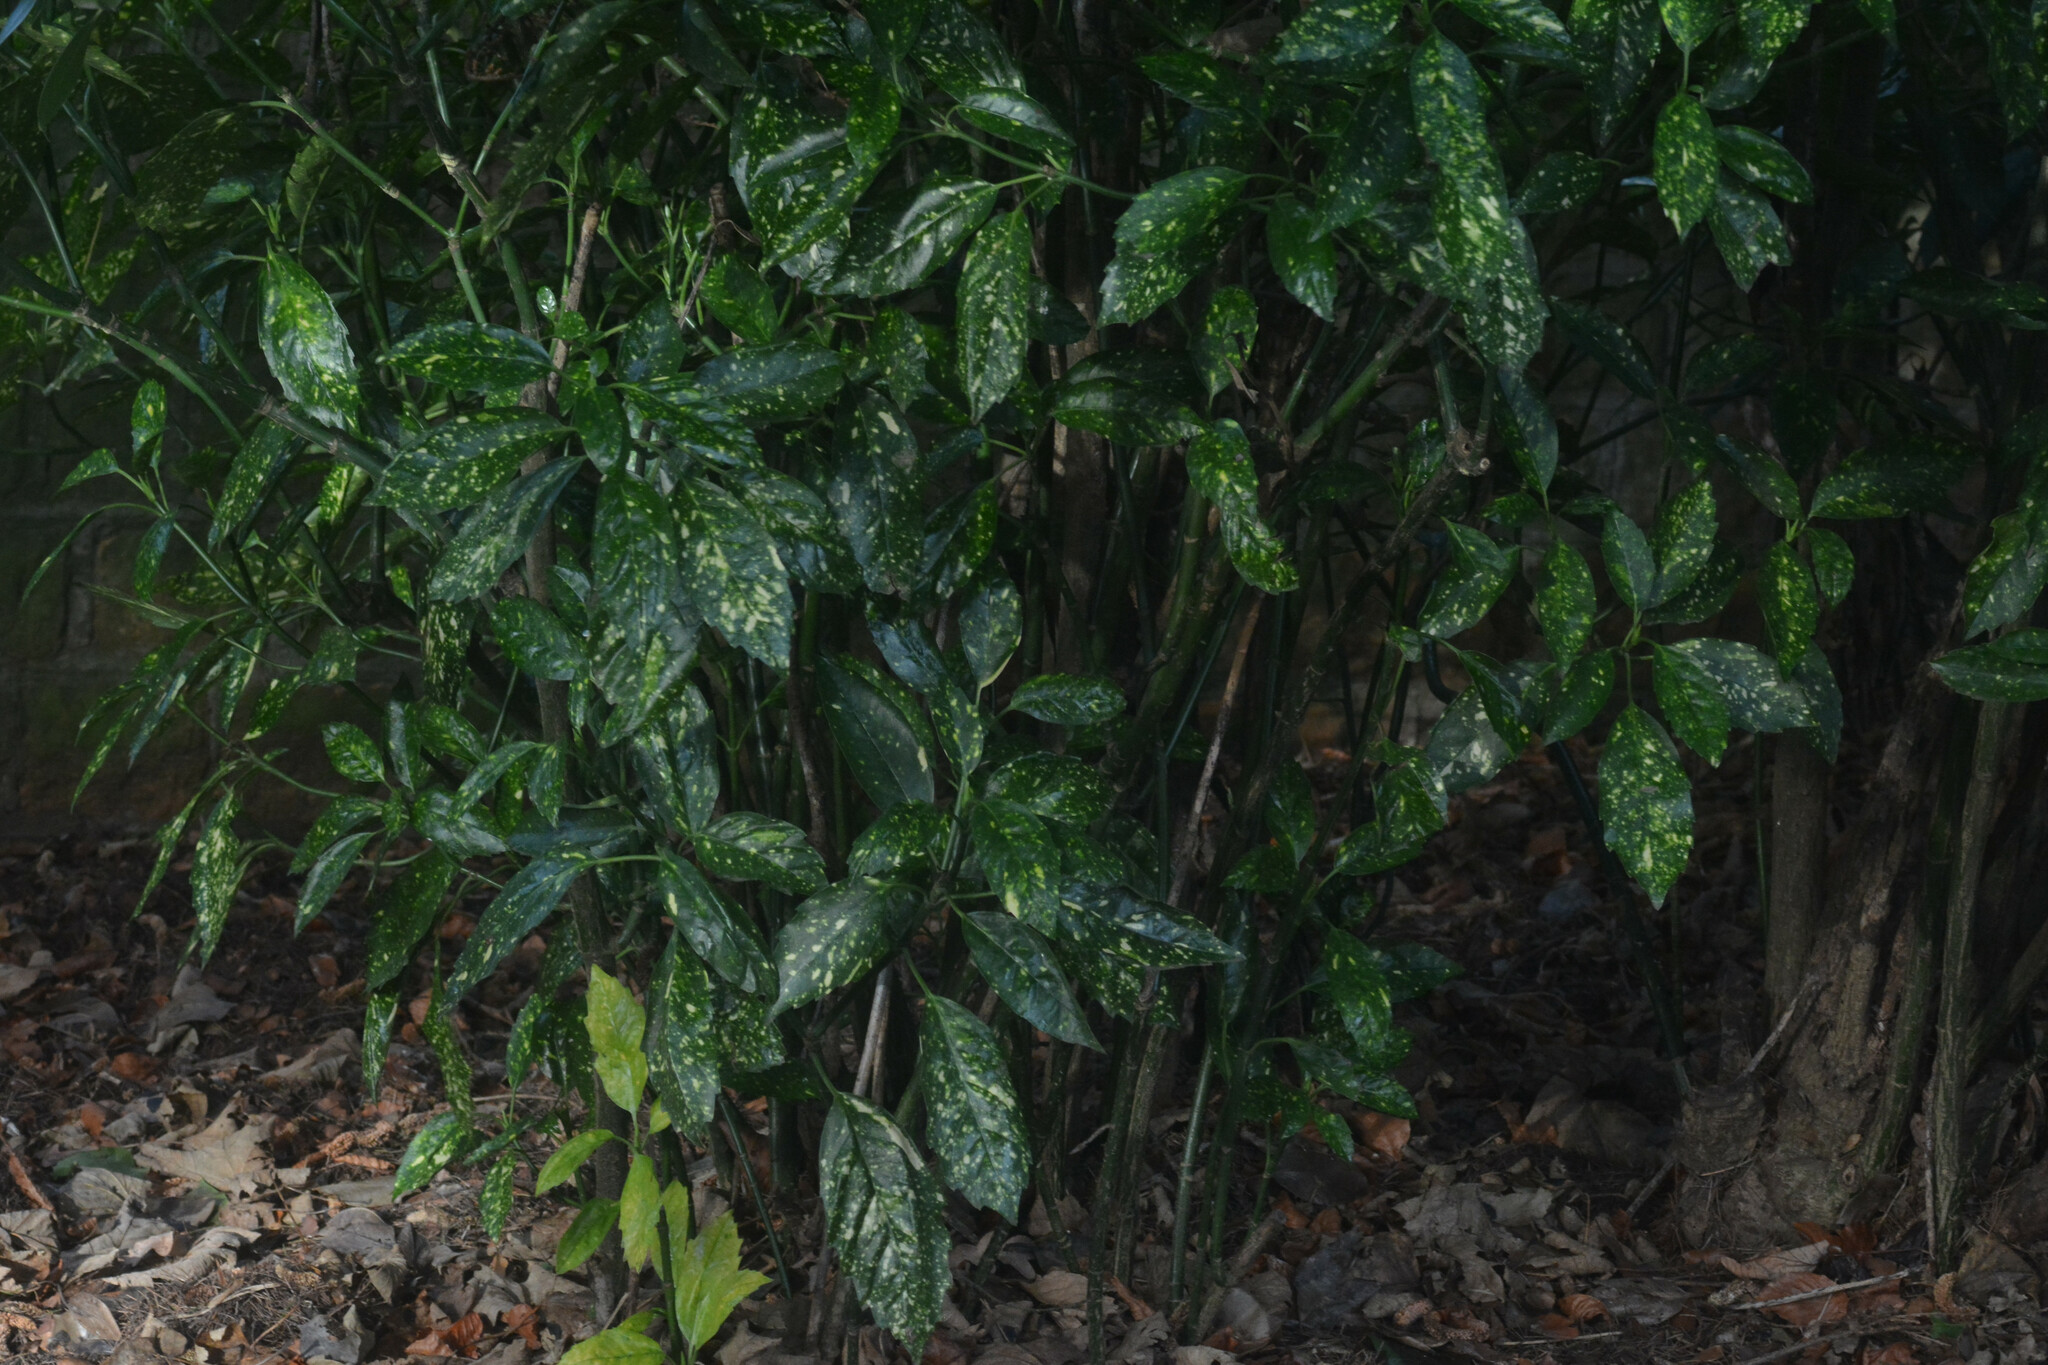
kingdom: Plantae
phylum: Tracheophyta
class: Magnoliopsida
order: Garryales
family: Garryaceae
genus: Aucuba
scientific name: Aucuba japonica
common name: Spotted-laurel
